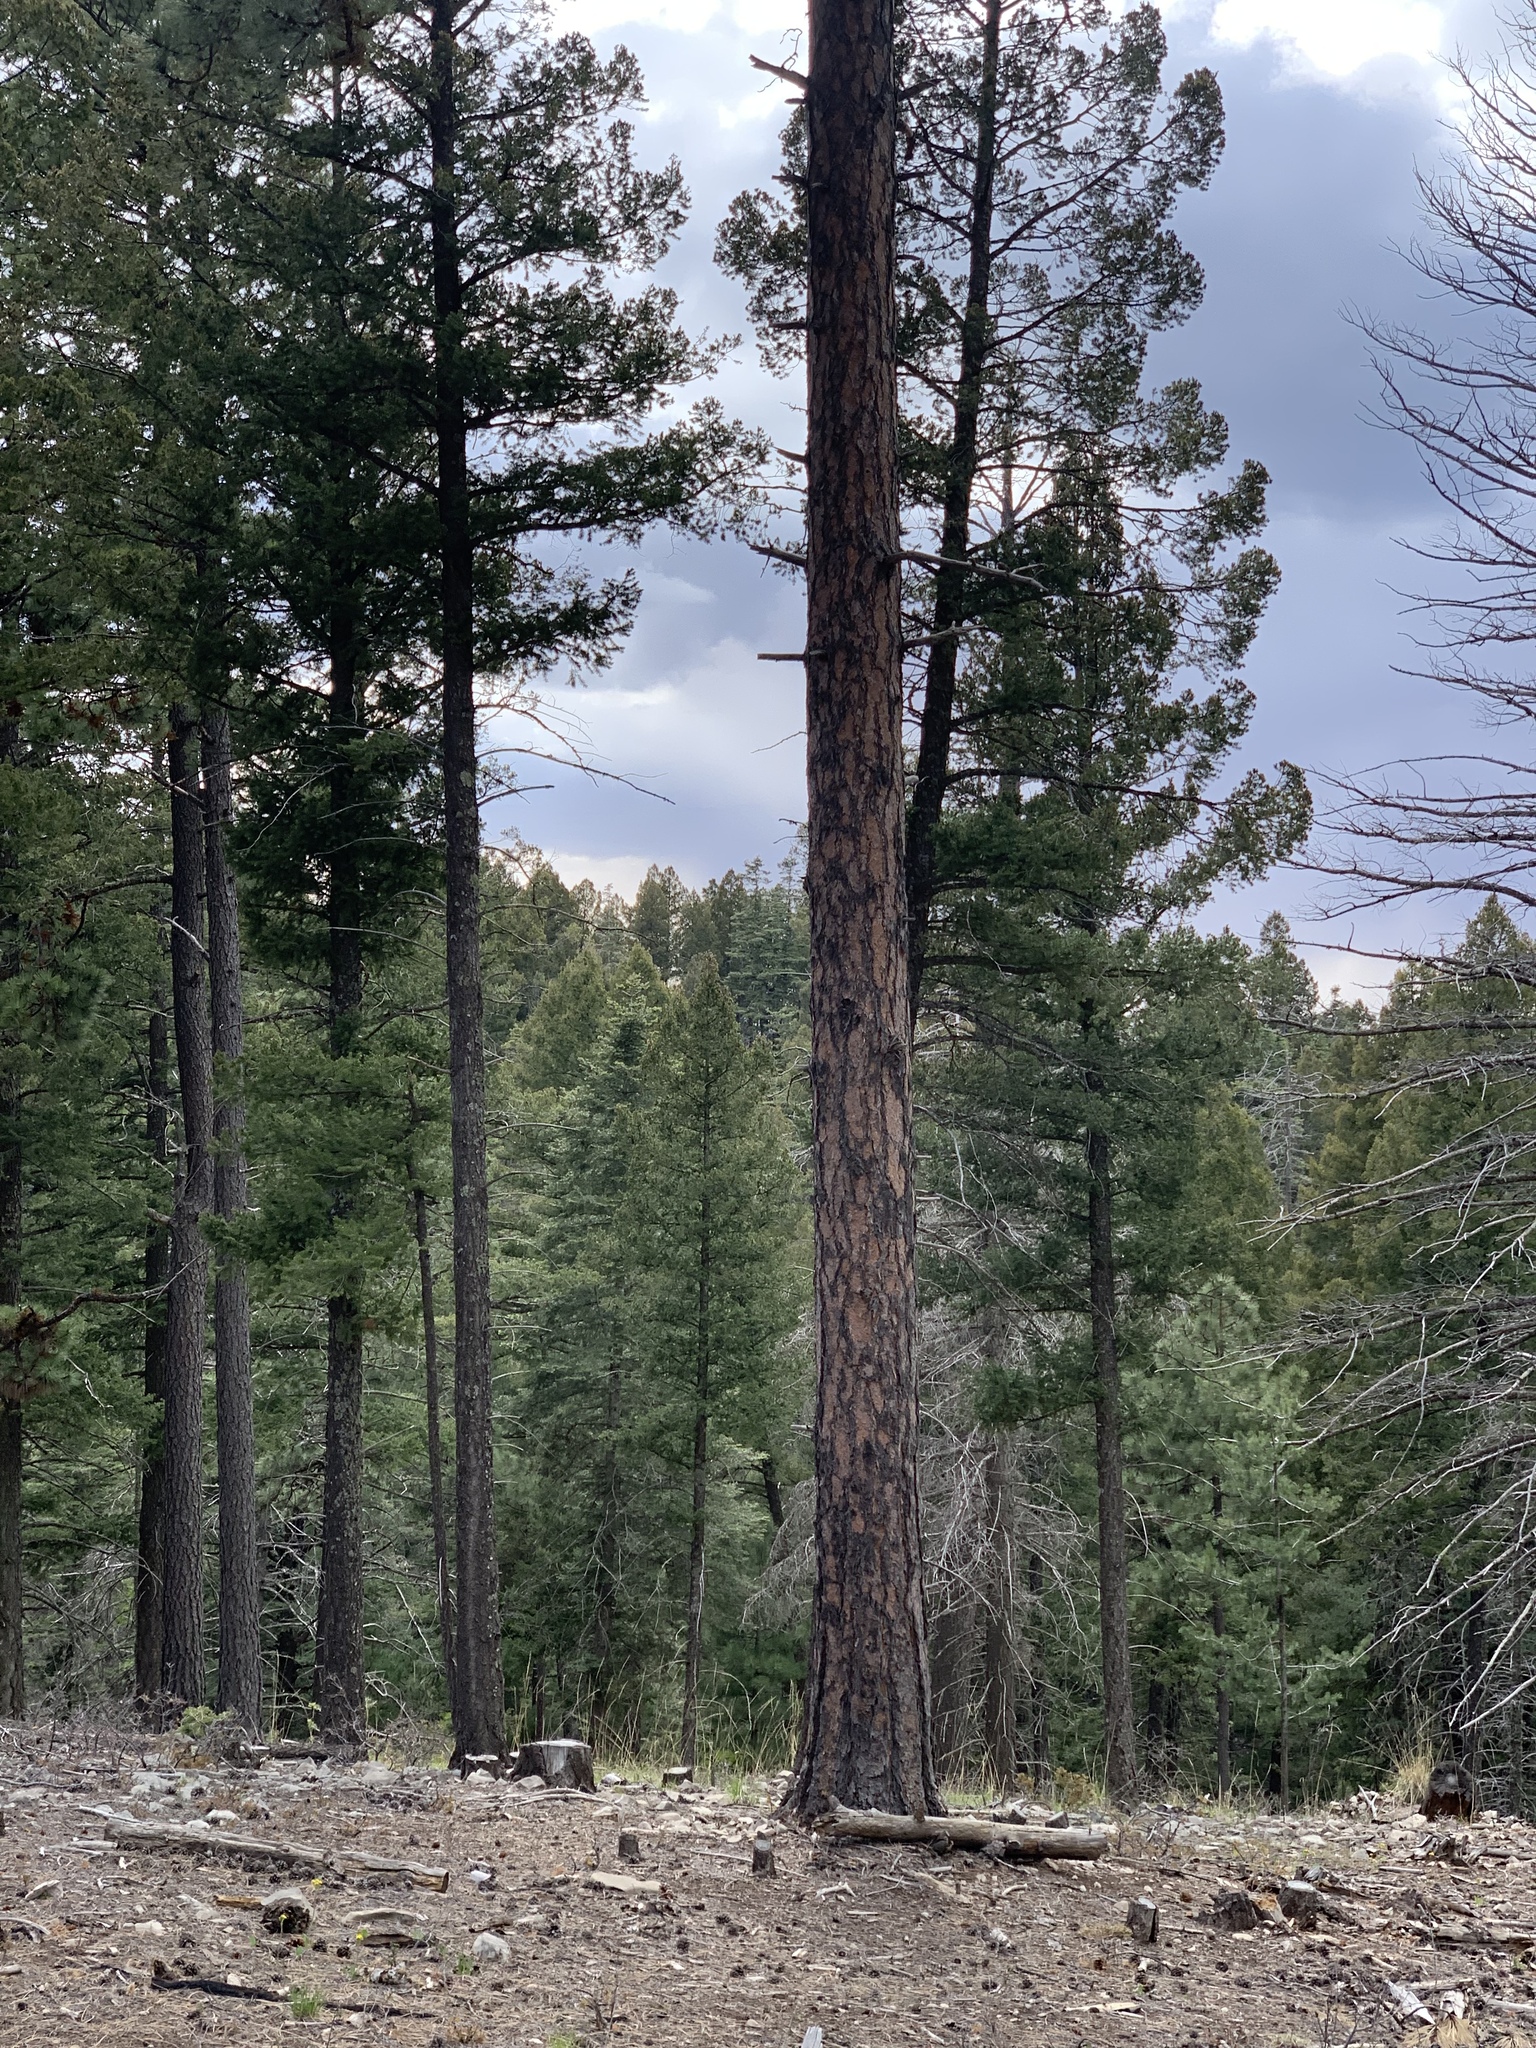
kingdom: Plantae
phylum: Tracheophyta
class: Pinopsida
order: Pinales
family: Pinaceae
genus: Pinus
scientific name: Pinus ponderosa
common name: Western yellow-pine
